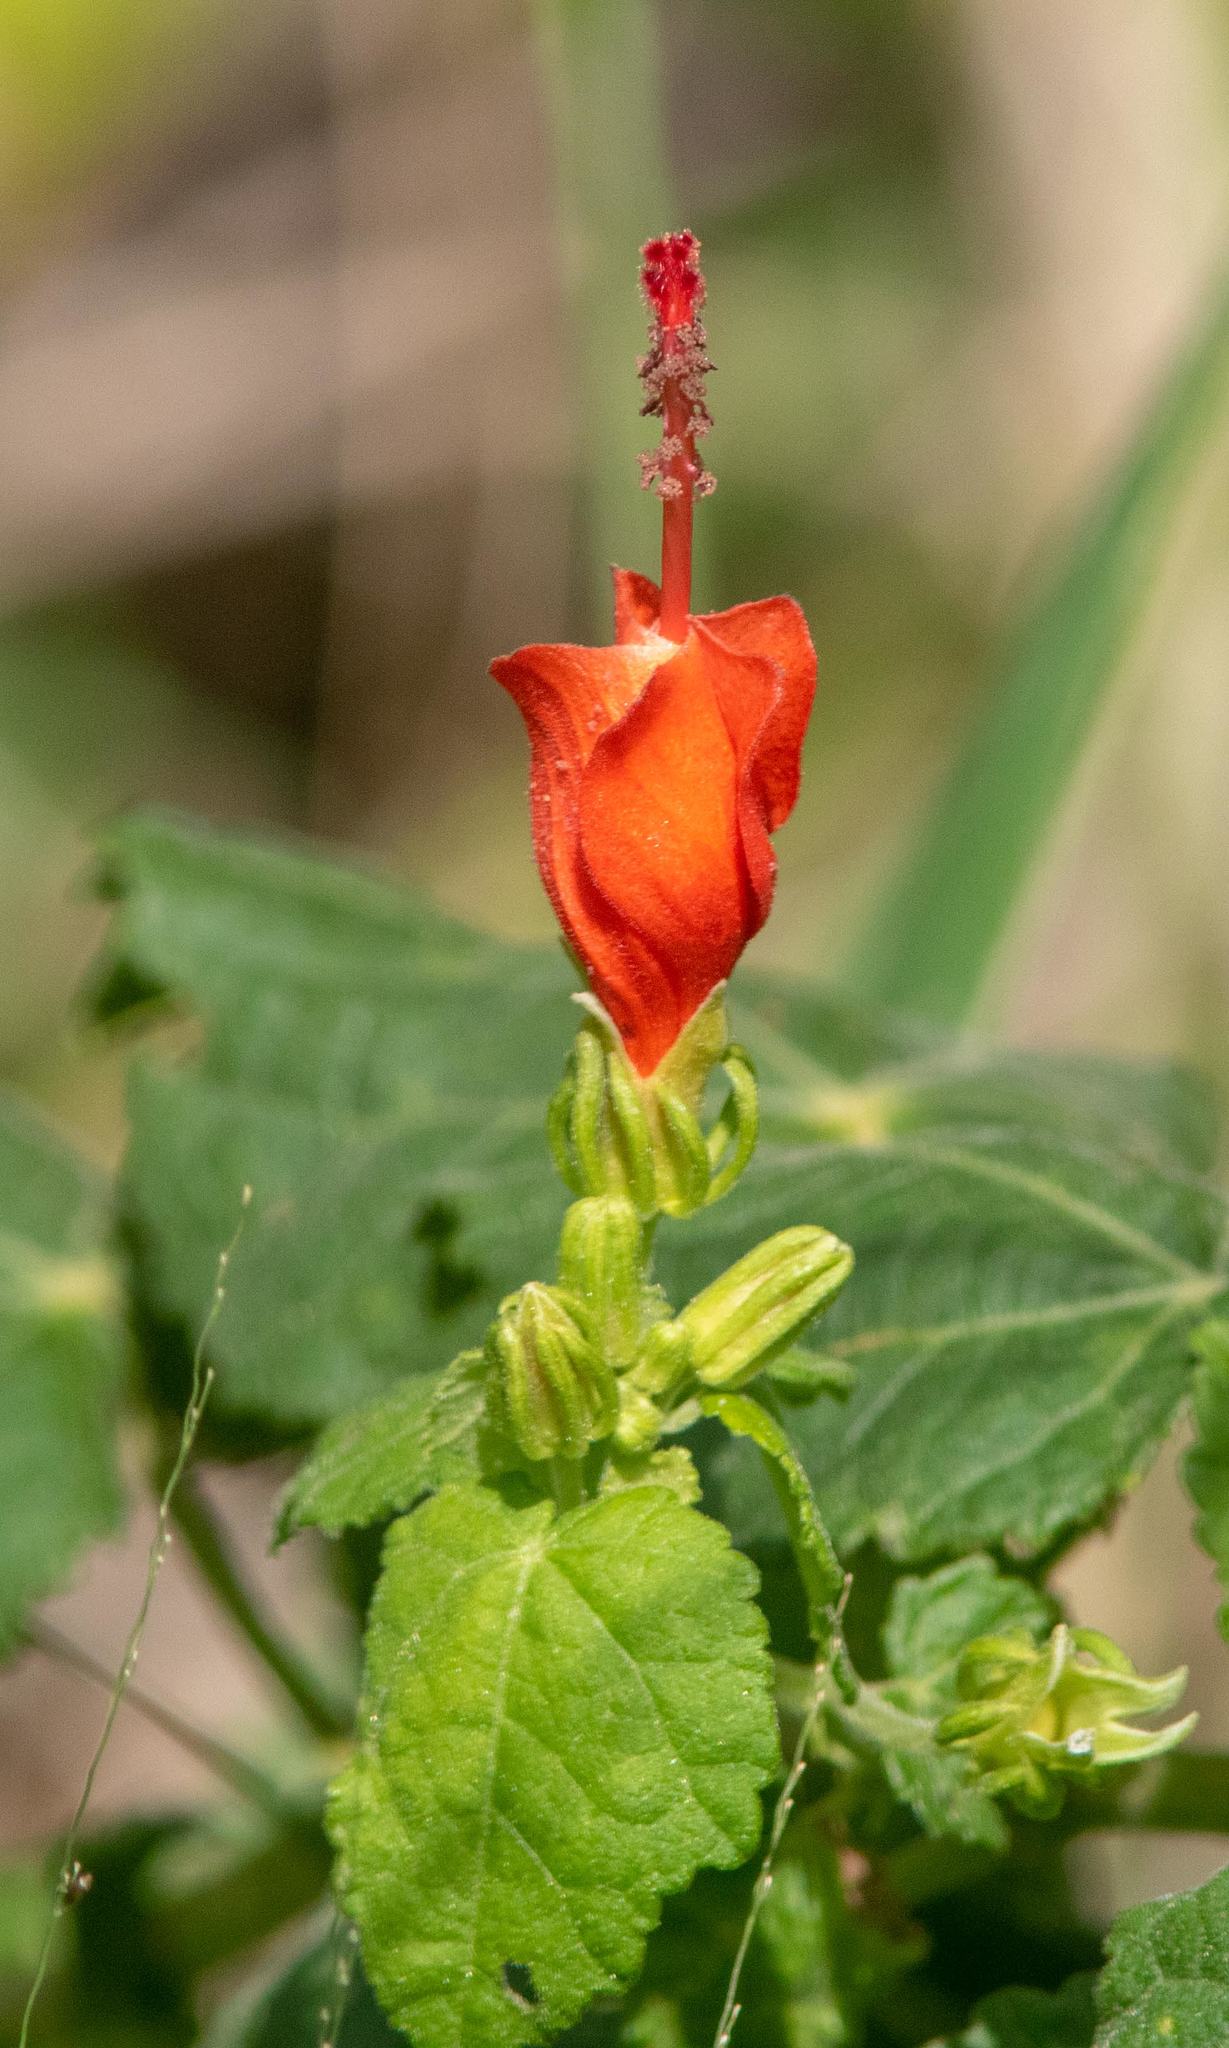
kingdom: Plantae
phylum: Tracheophyta
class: Magnoliopsida
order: Malvales
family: Malvaceae
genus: Malvaviscus
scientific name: Malvaviscus arboreus
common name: Wax mallow
